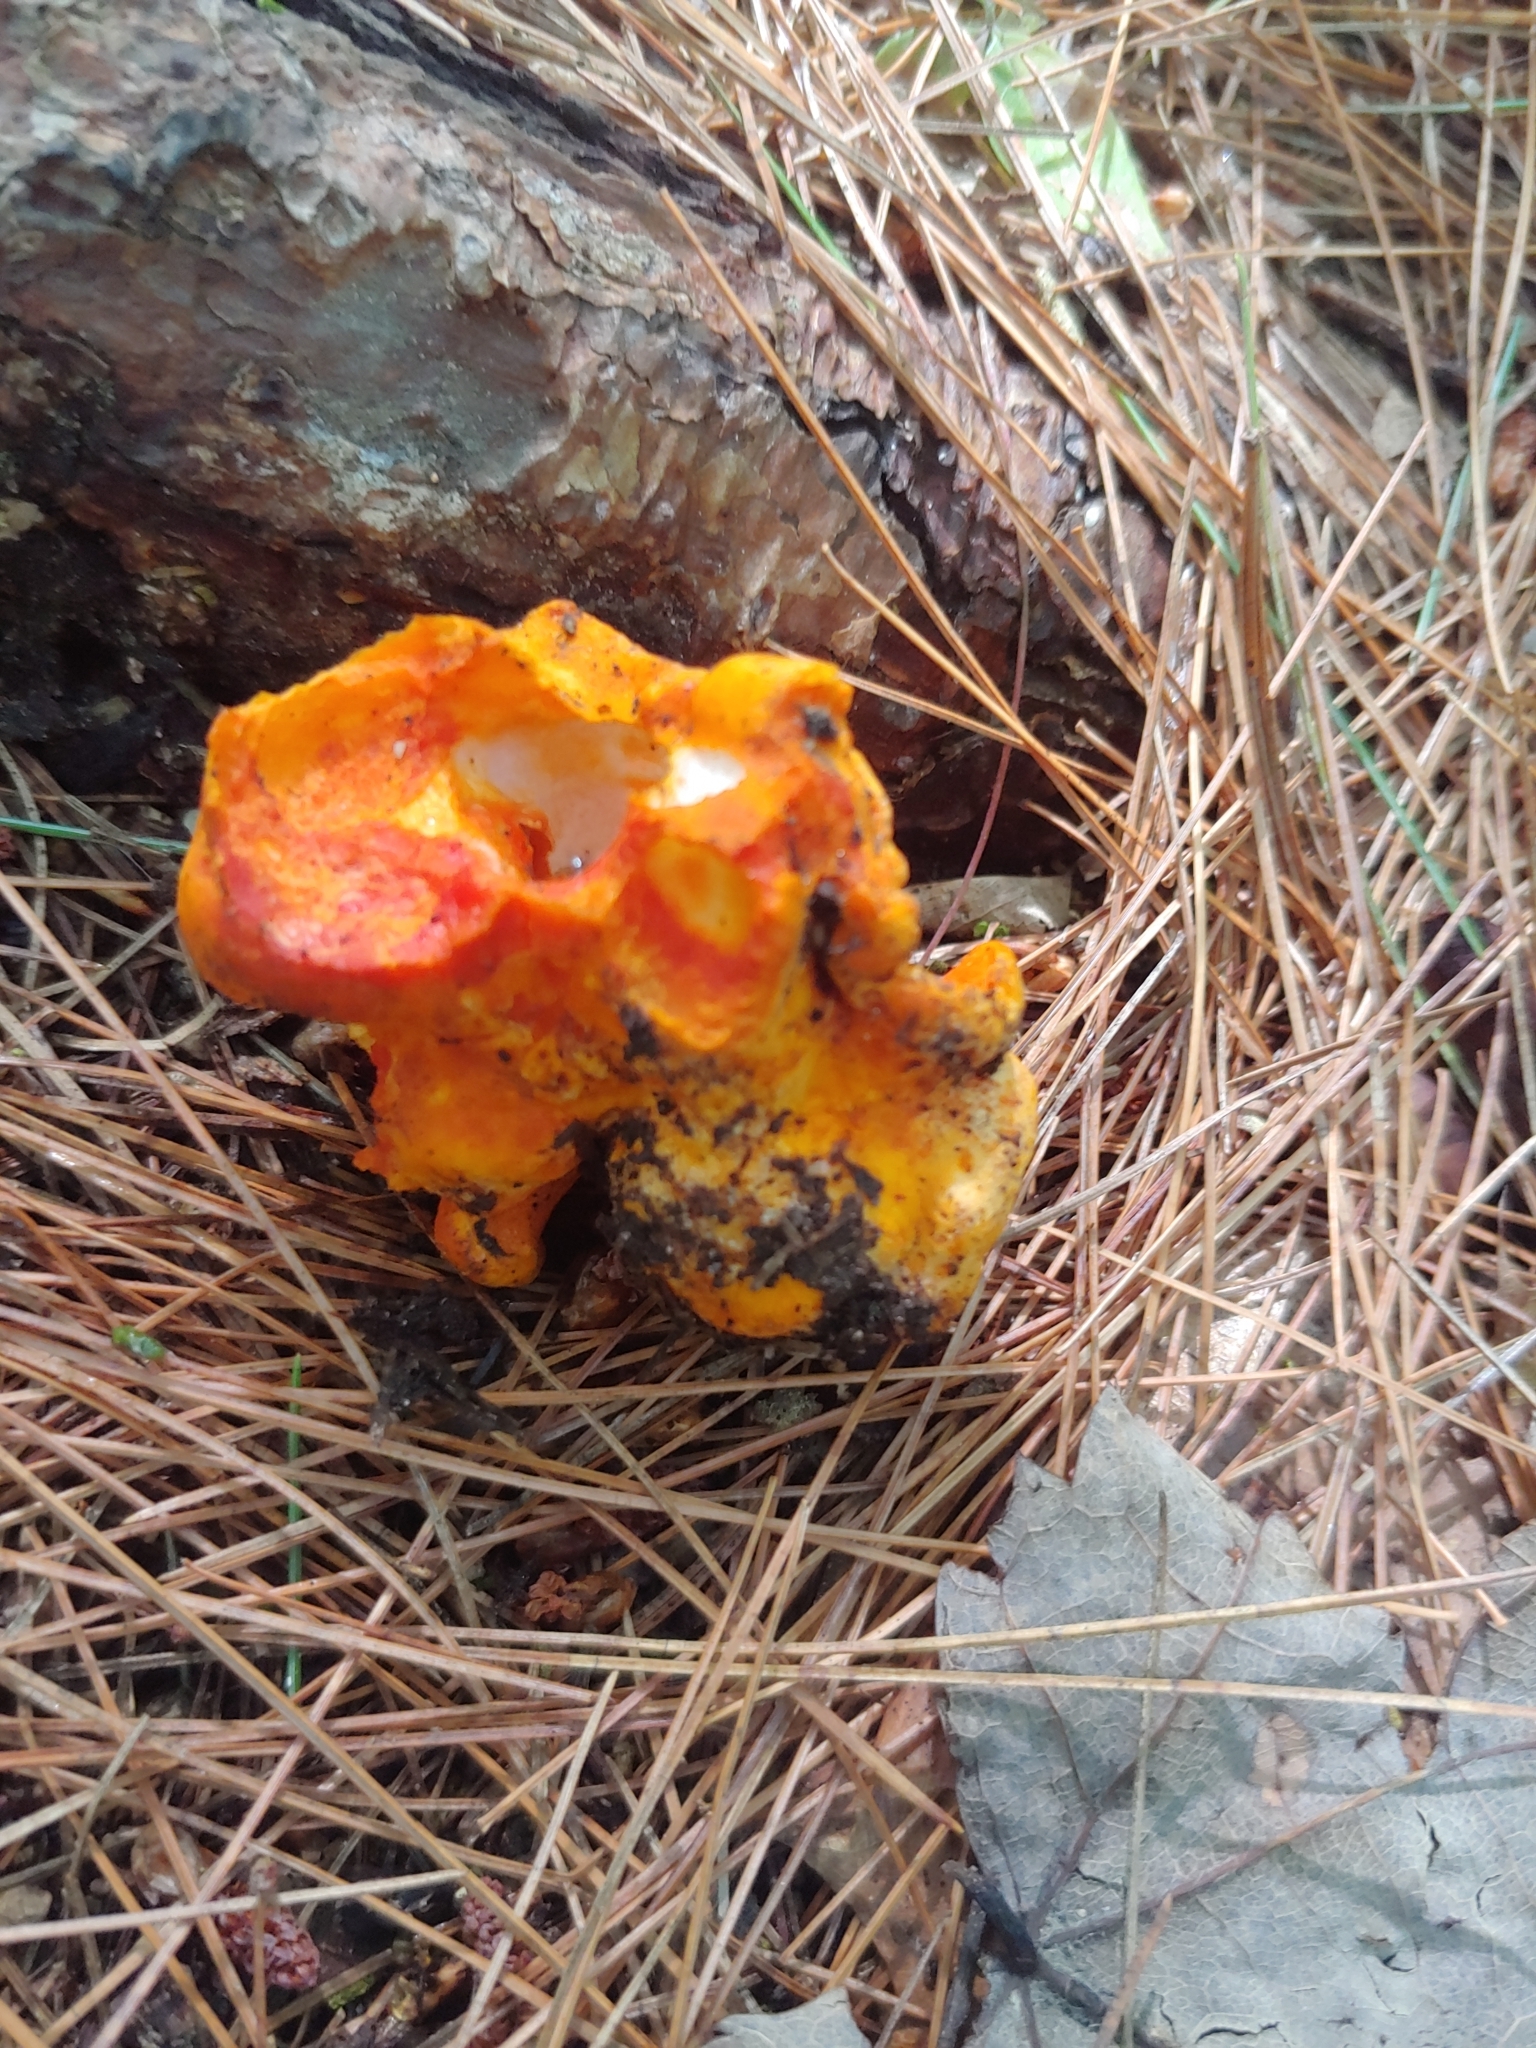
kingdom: Fungi
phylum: Ascomycota
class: Sordariomycetes
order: Hypocreales
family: Hypocreaceae
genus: Hypomyces
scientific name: Hypomyces lactifluorum
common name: Lobster mushroom
